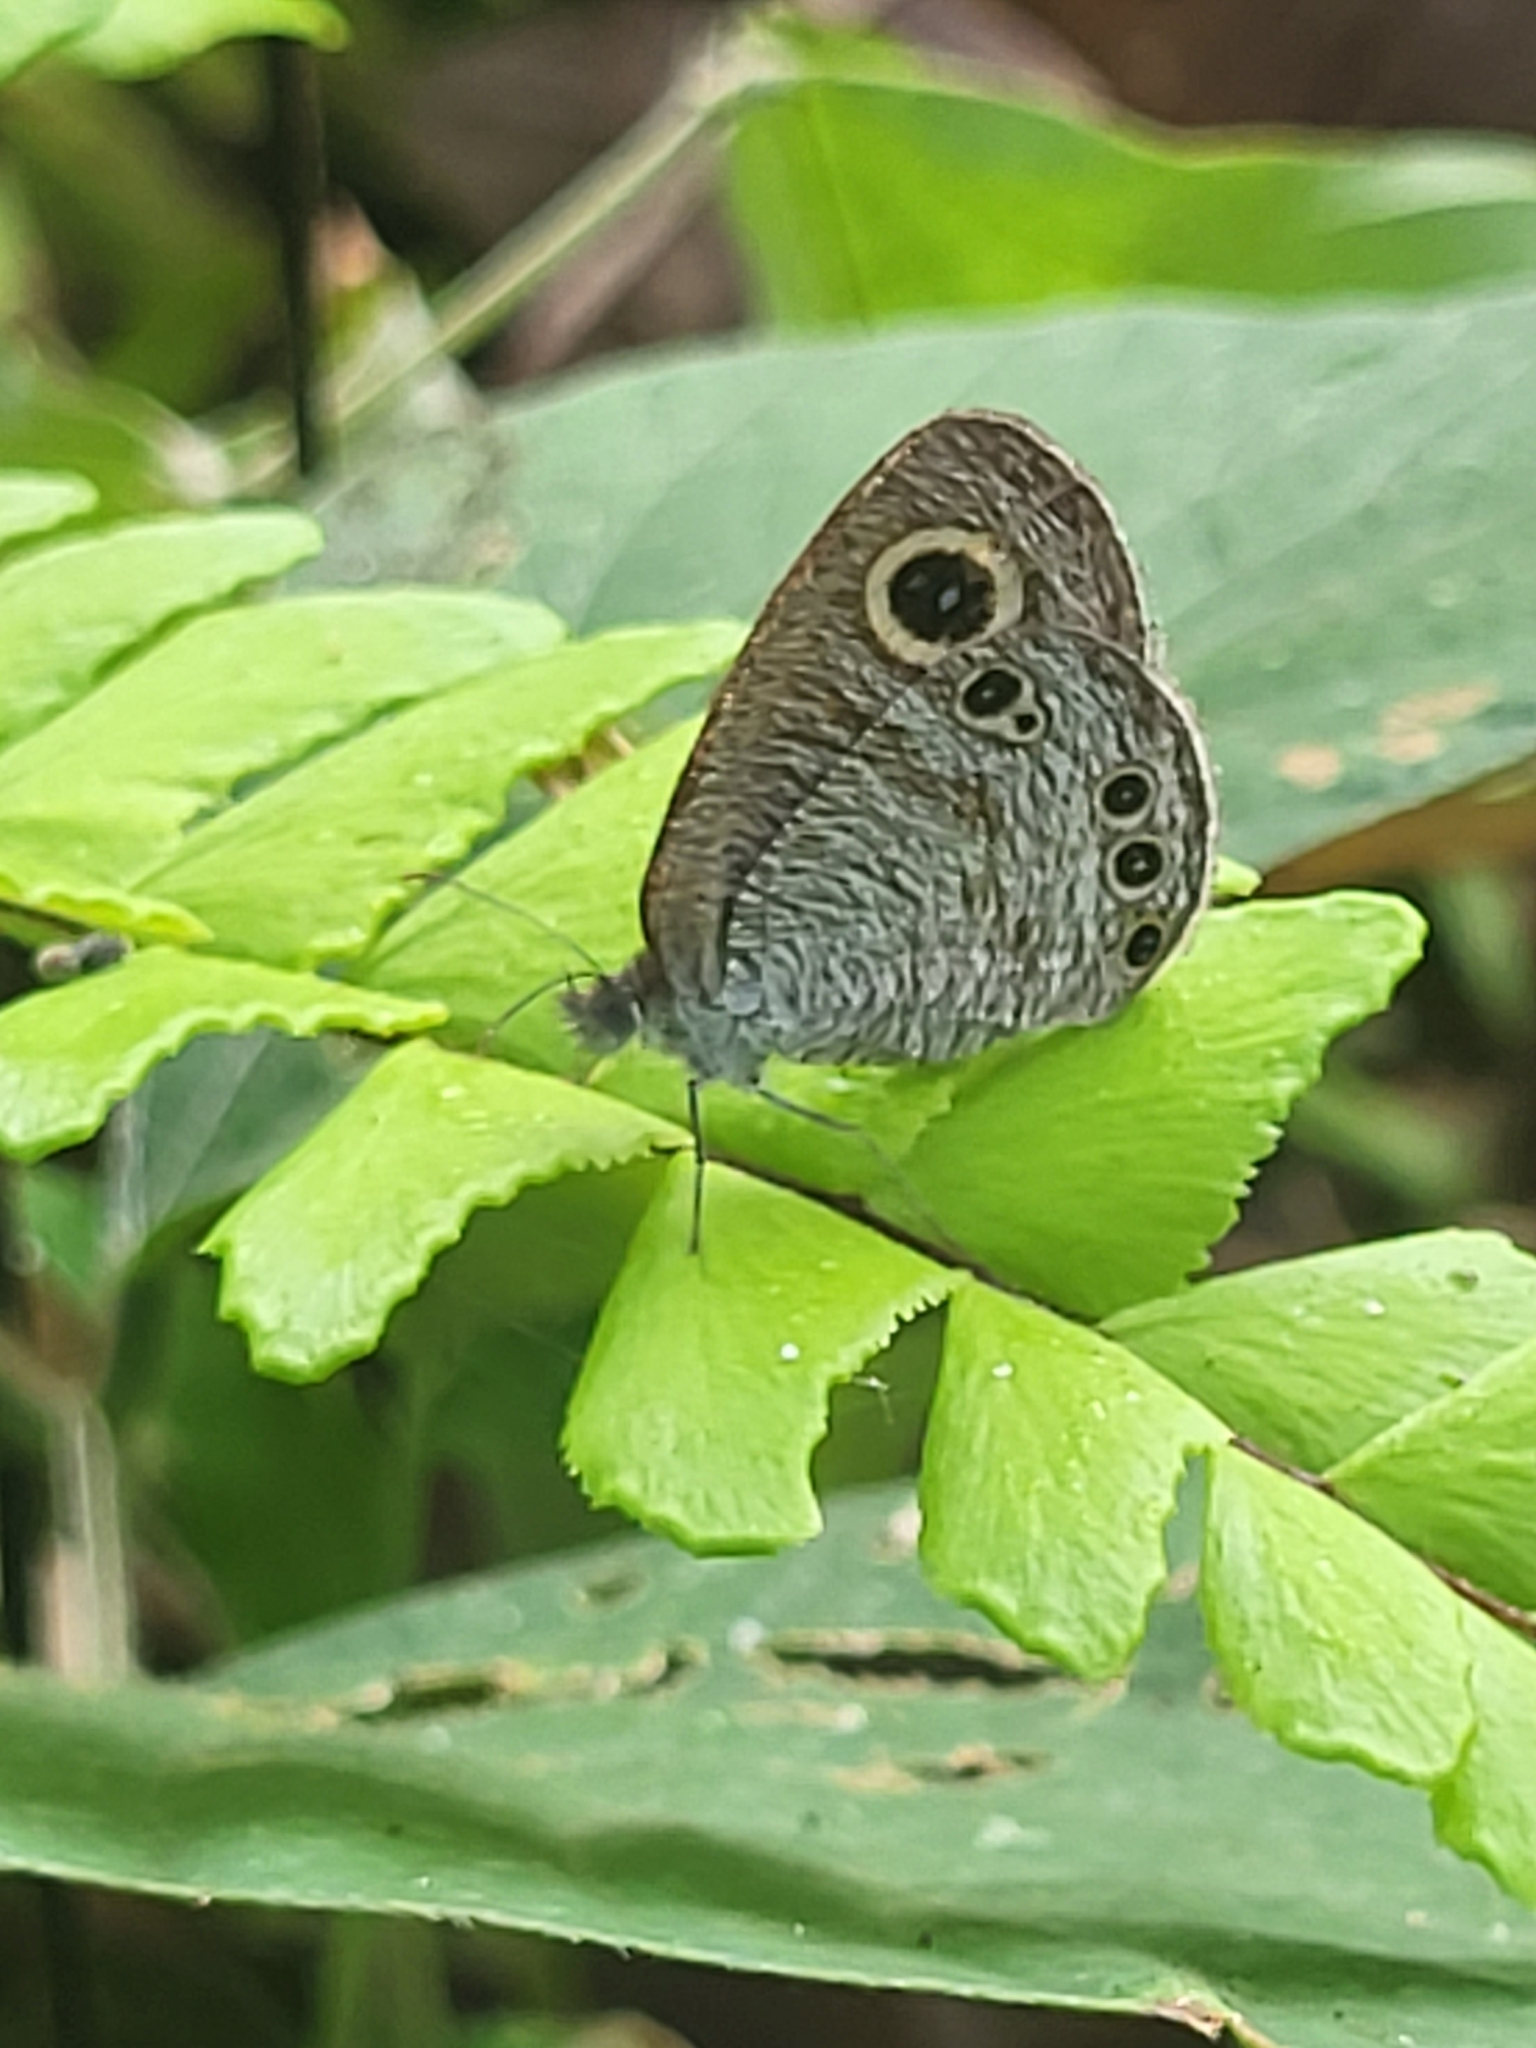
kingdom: Animalia
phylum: Arthropoda
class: Insecta
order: Lepidoptera
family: Nymphalidae
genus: Ypthima
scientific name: Ypthima huebneri
